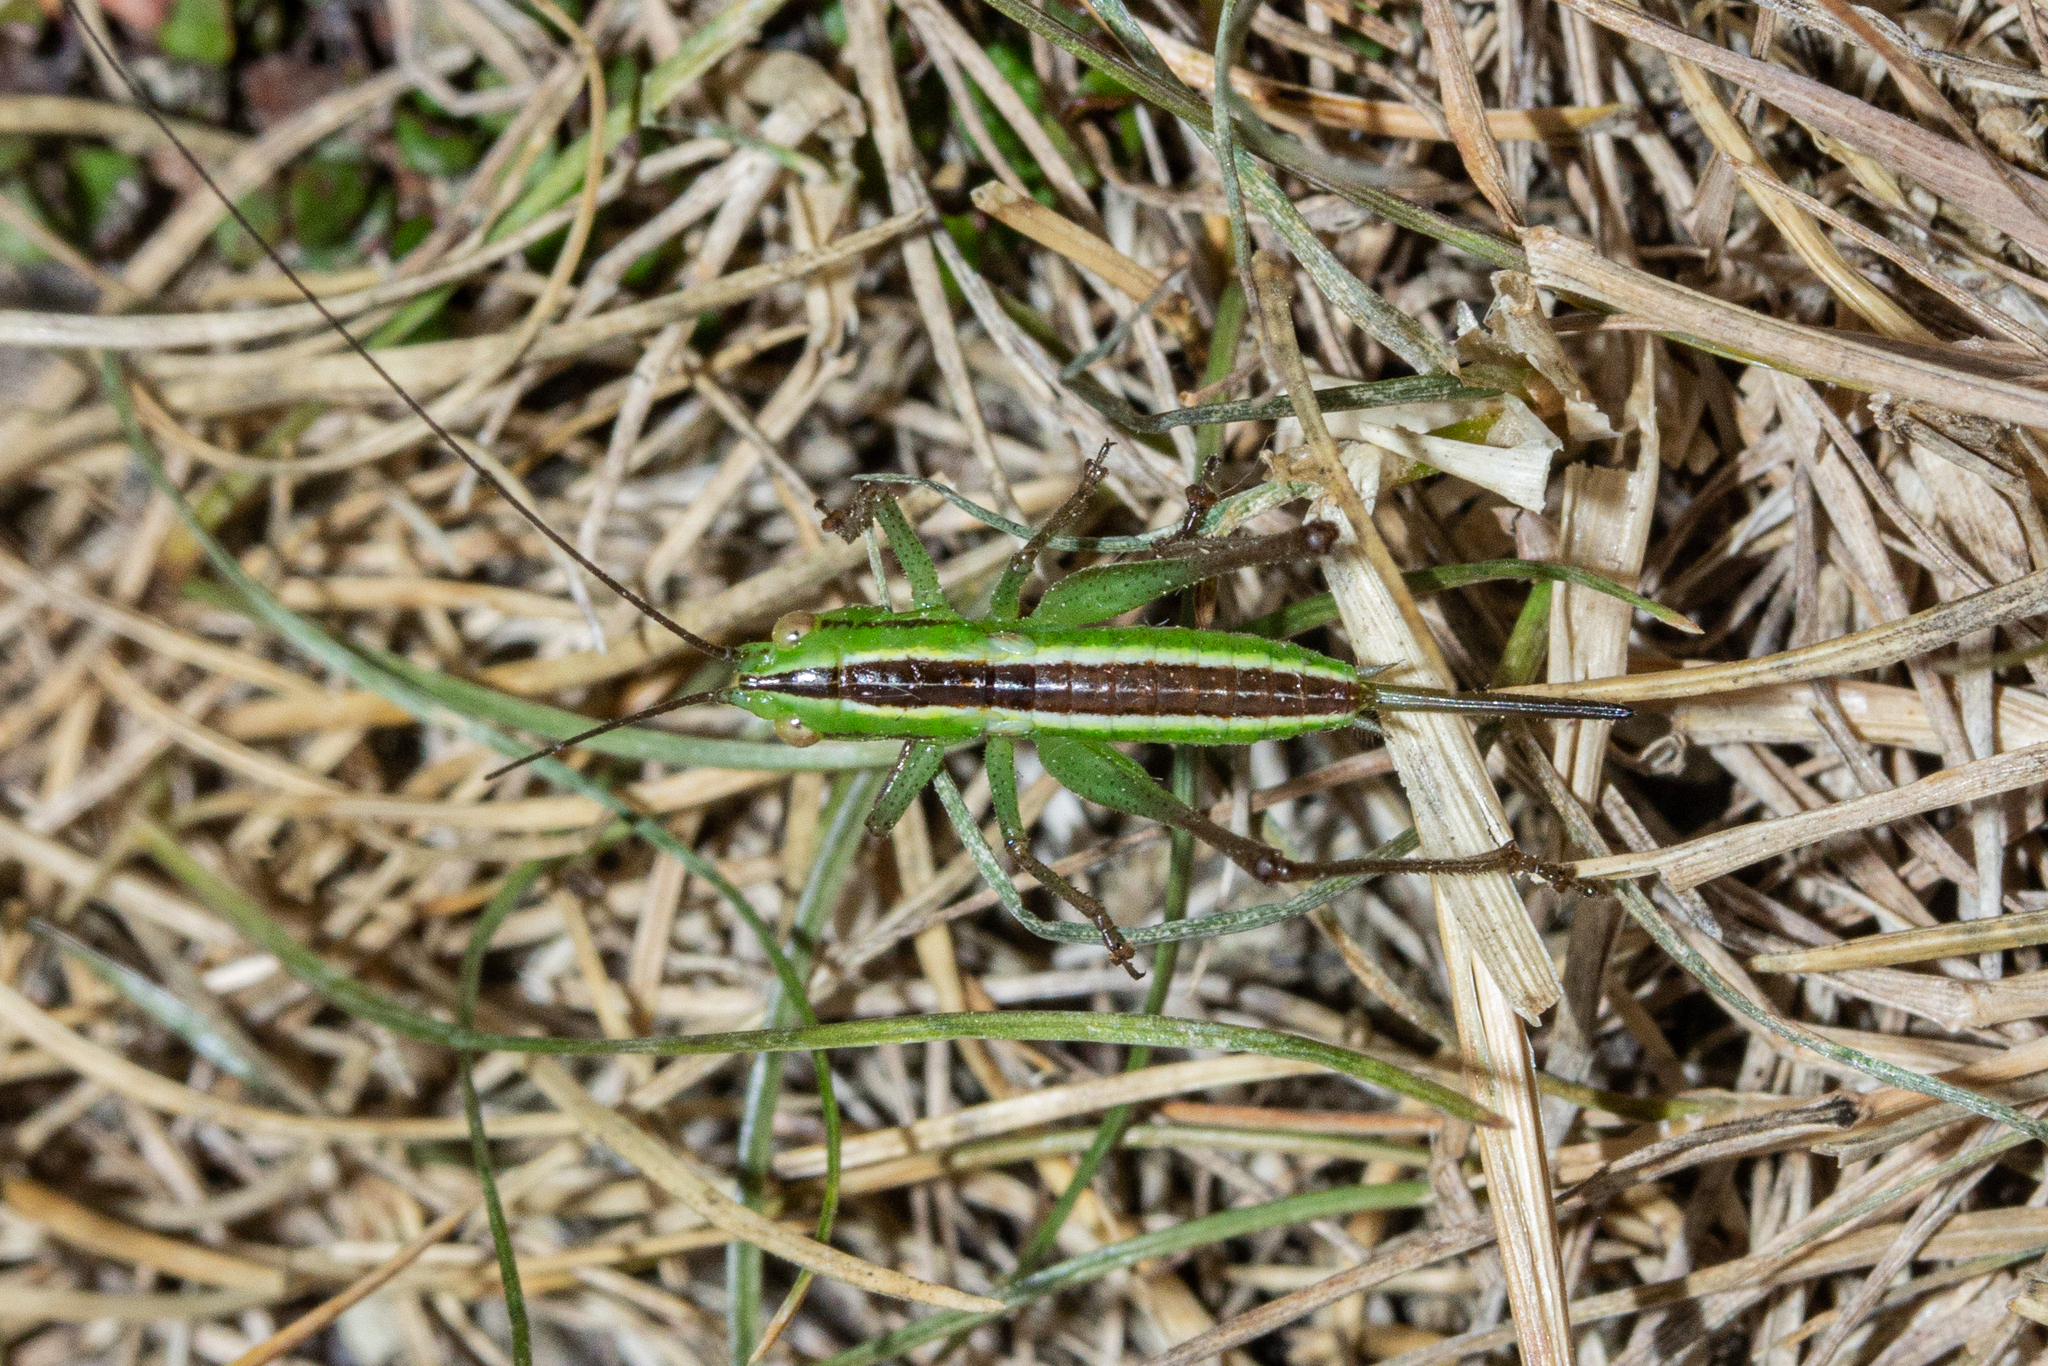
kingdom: Animalia
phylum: Arthropoda
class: Insecta
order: Orthoptera
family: Tettigoniidae
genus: Conocephalus
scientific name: Conocephalus bilineatus
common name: Small meadow katydid
